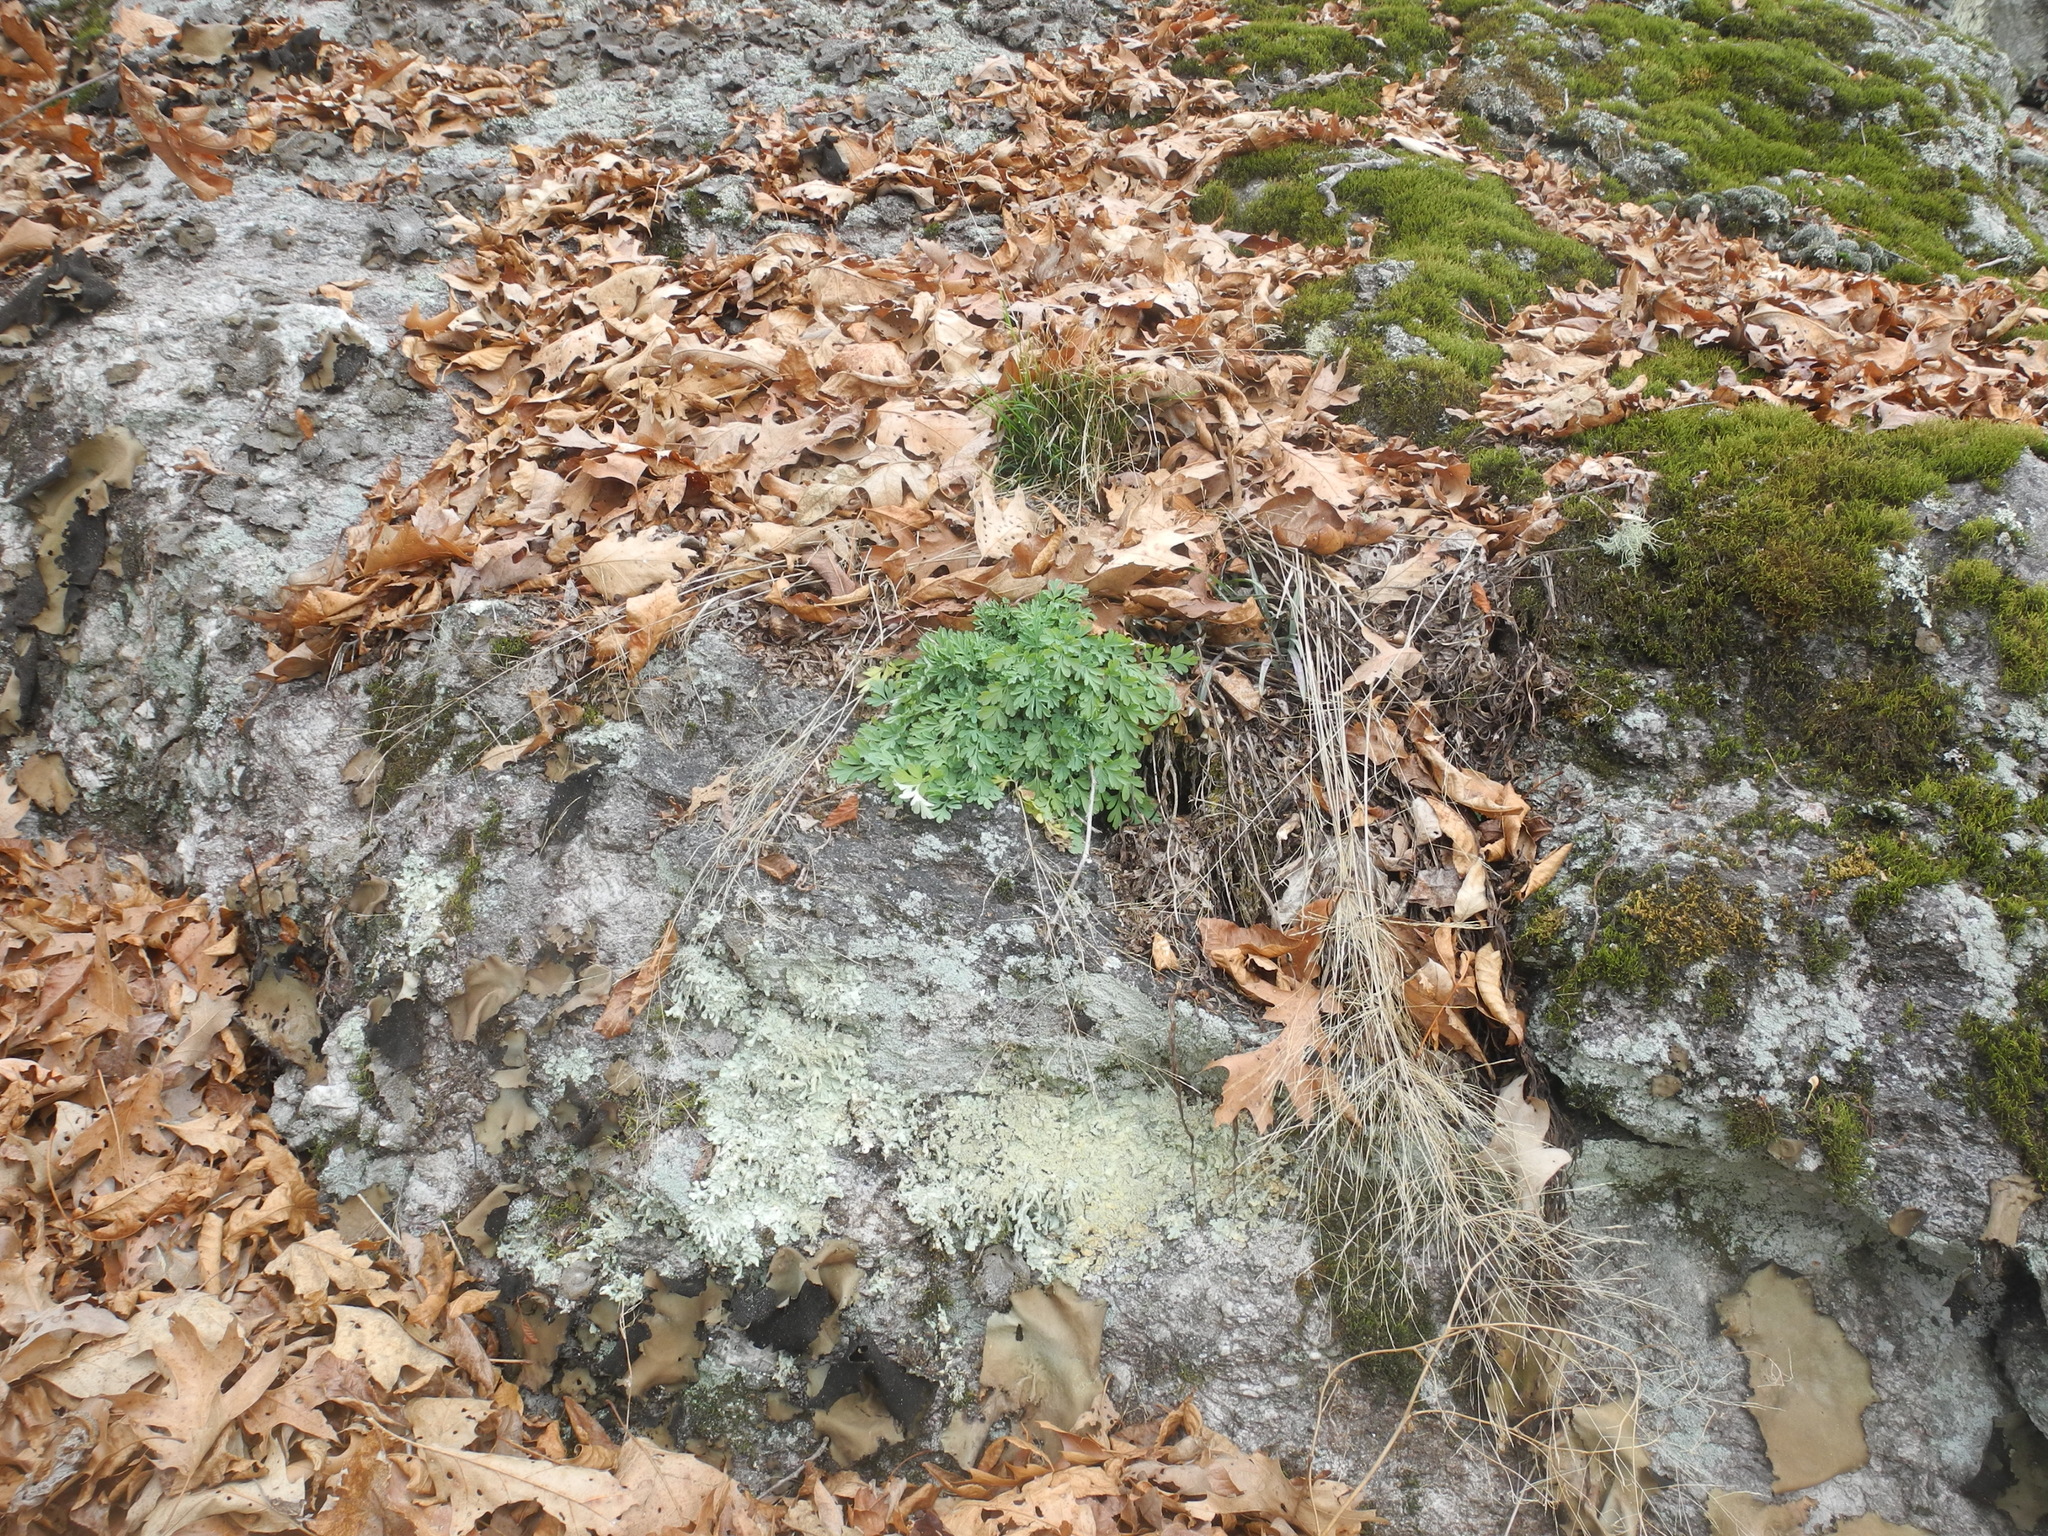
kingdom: Plantae
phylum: Tracheophyta
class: Magnoliopsida
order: Ranunculales
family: Papaveraceae
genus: Capnoides
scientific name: Capnoides sempervirens
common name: Rock harlequin
